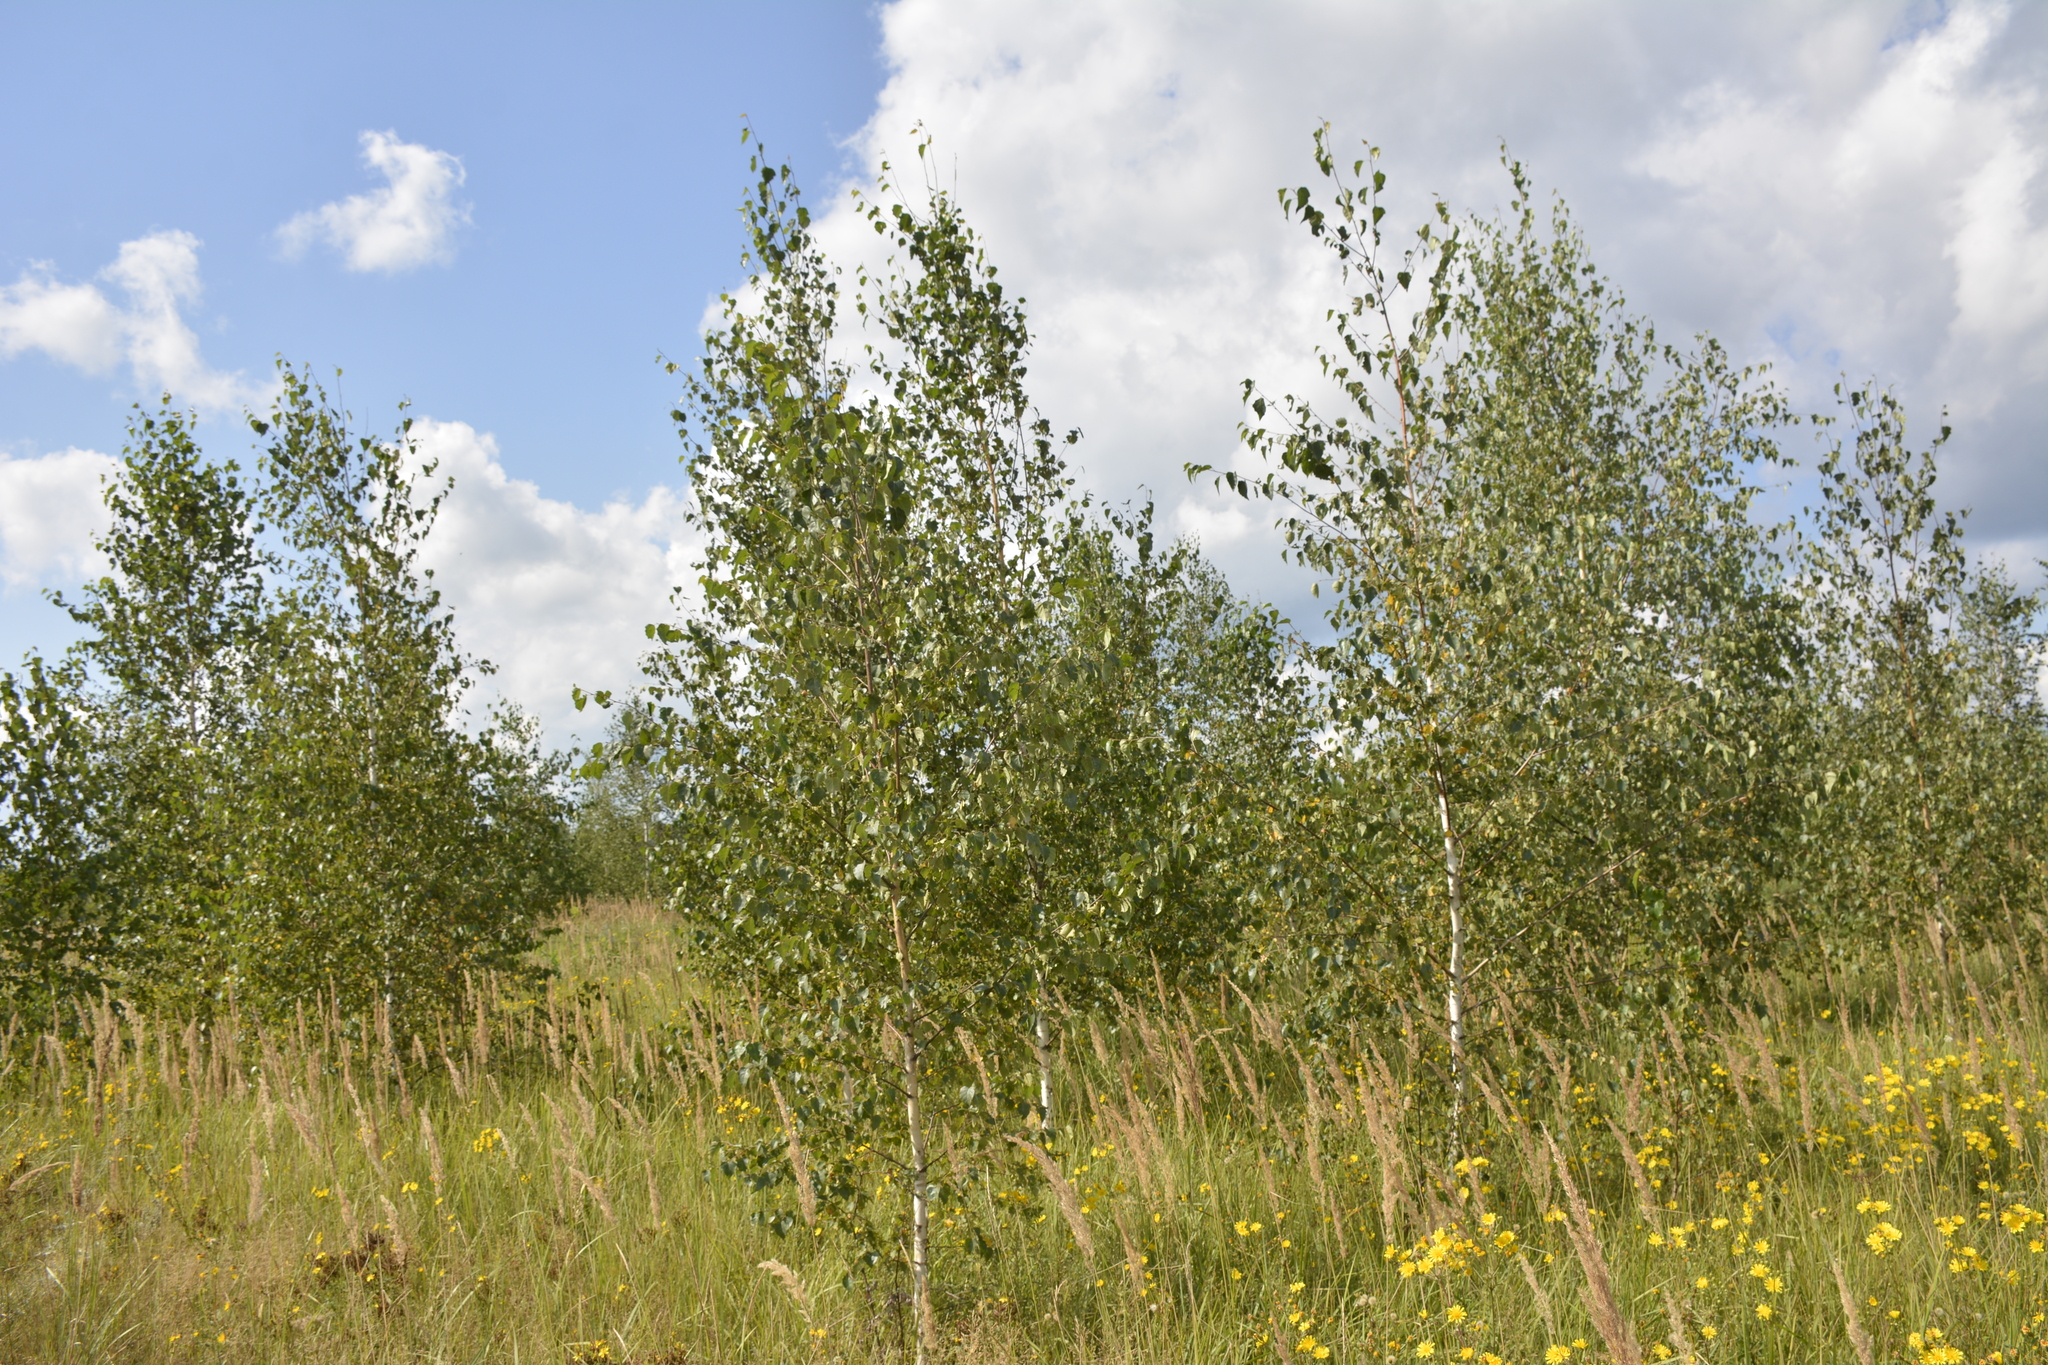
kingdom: Plantae
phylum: Tracheophyta
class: Magnoliopsida
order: Fagales
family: Betulaceae
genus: Betula
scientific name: Betula pendula
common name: Silver birch
